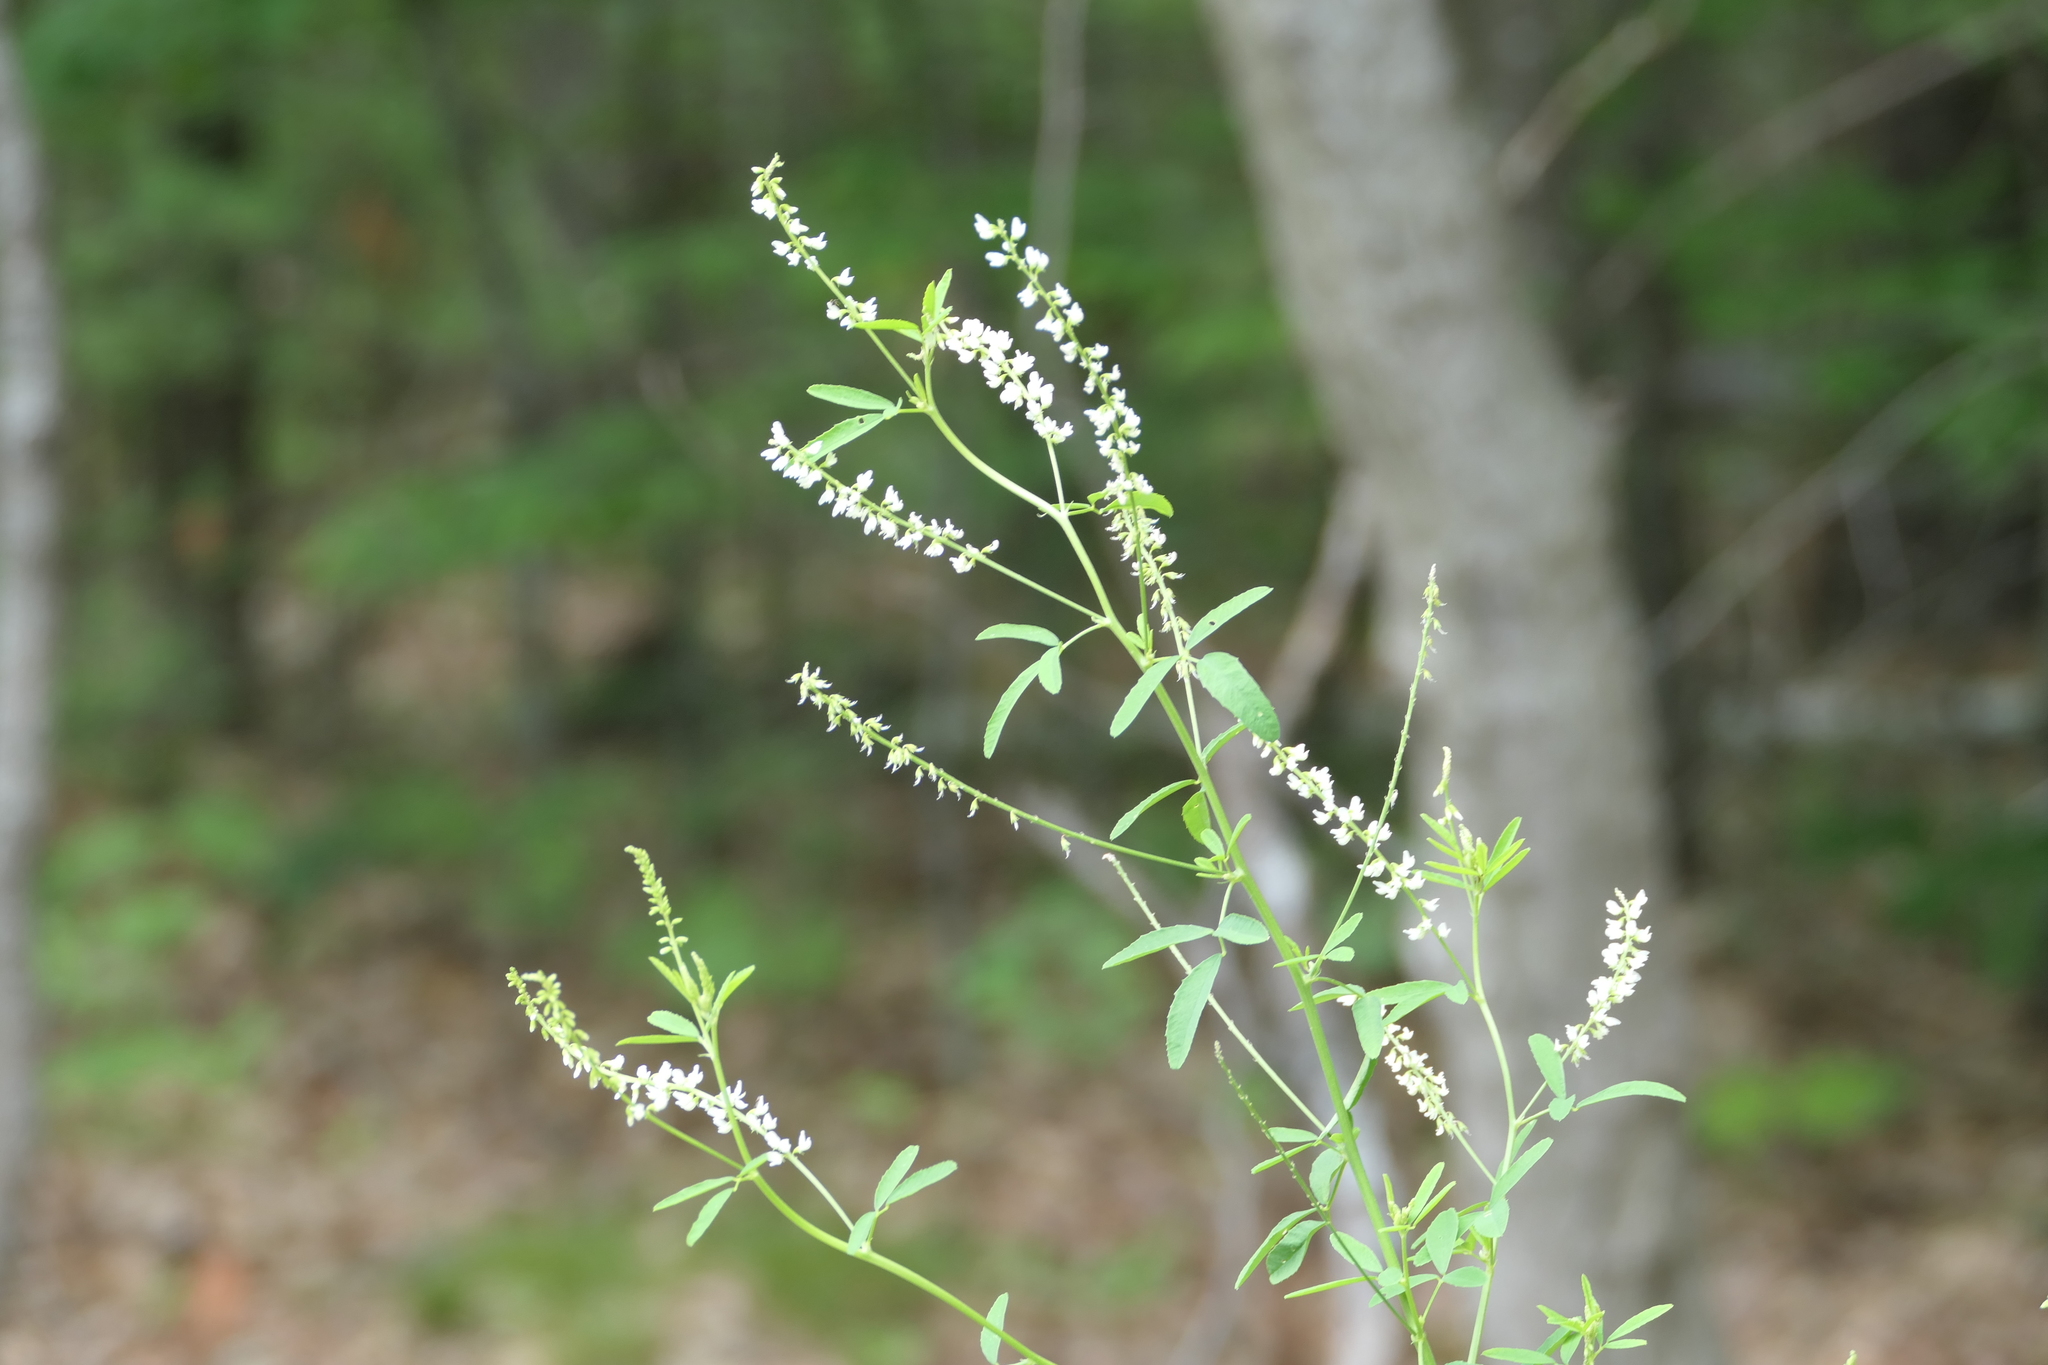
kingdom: Plantae
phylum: Tracheophyta
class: Magnoliopsida
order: Fabales
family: Fabaceae
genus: Melilotus
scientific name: Melilotus albus
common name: White melilot
